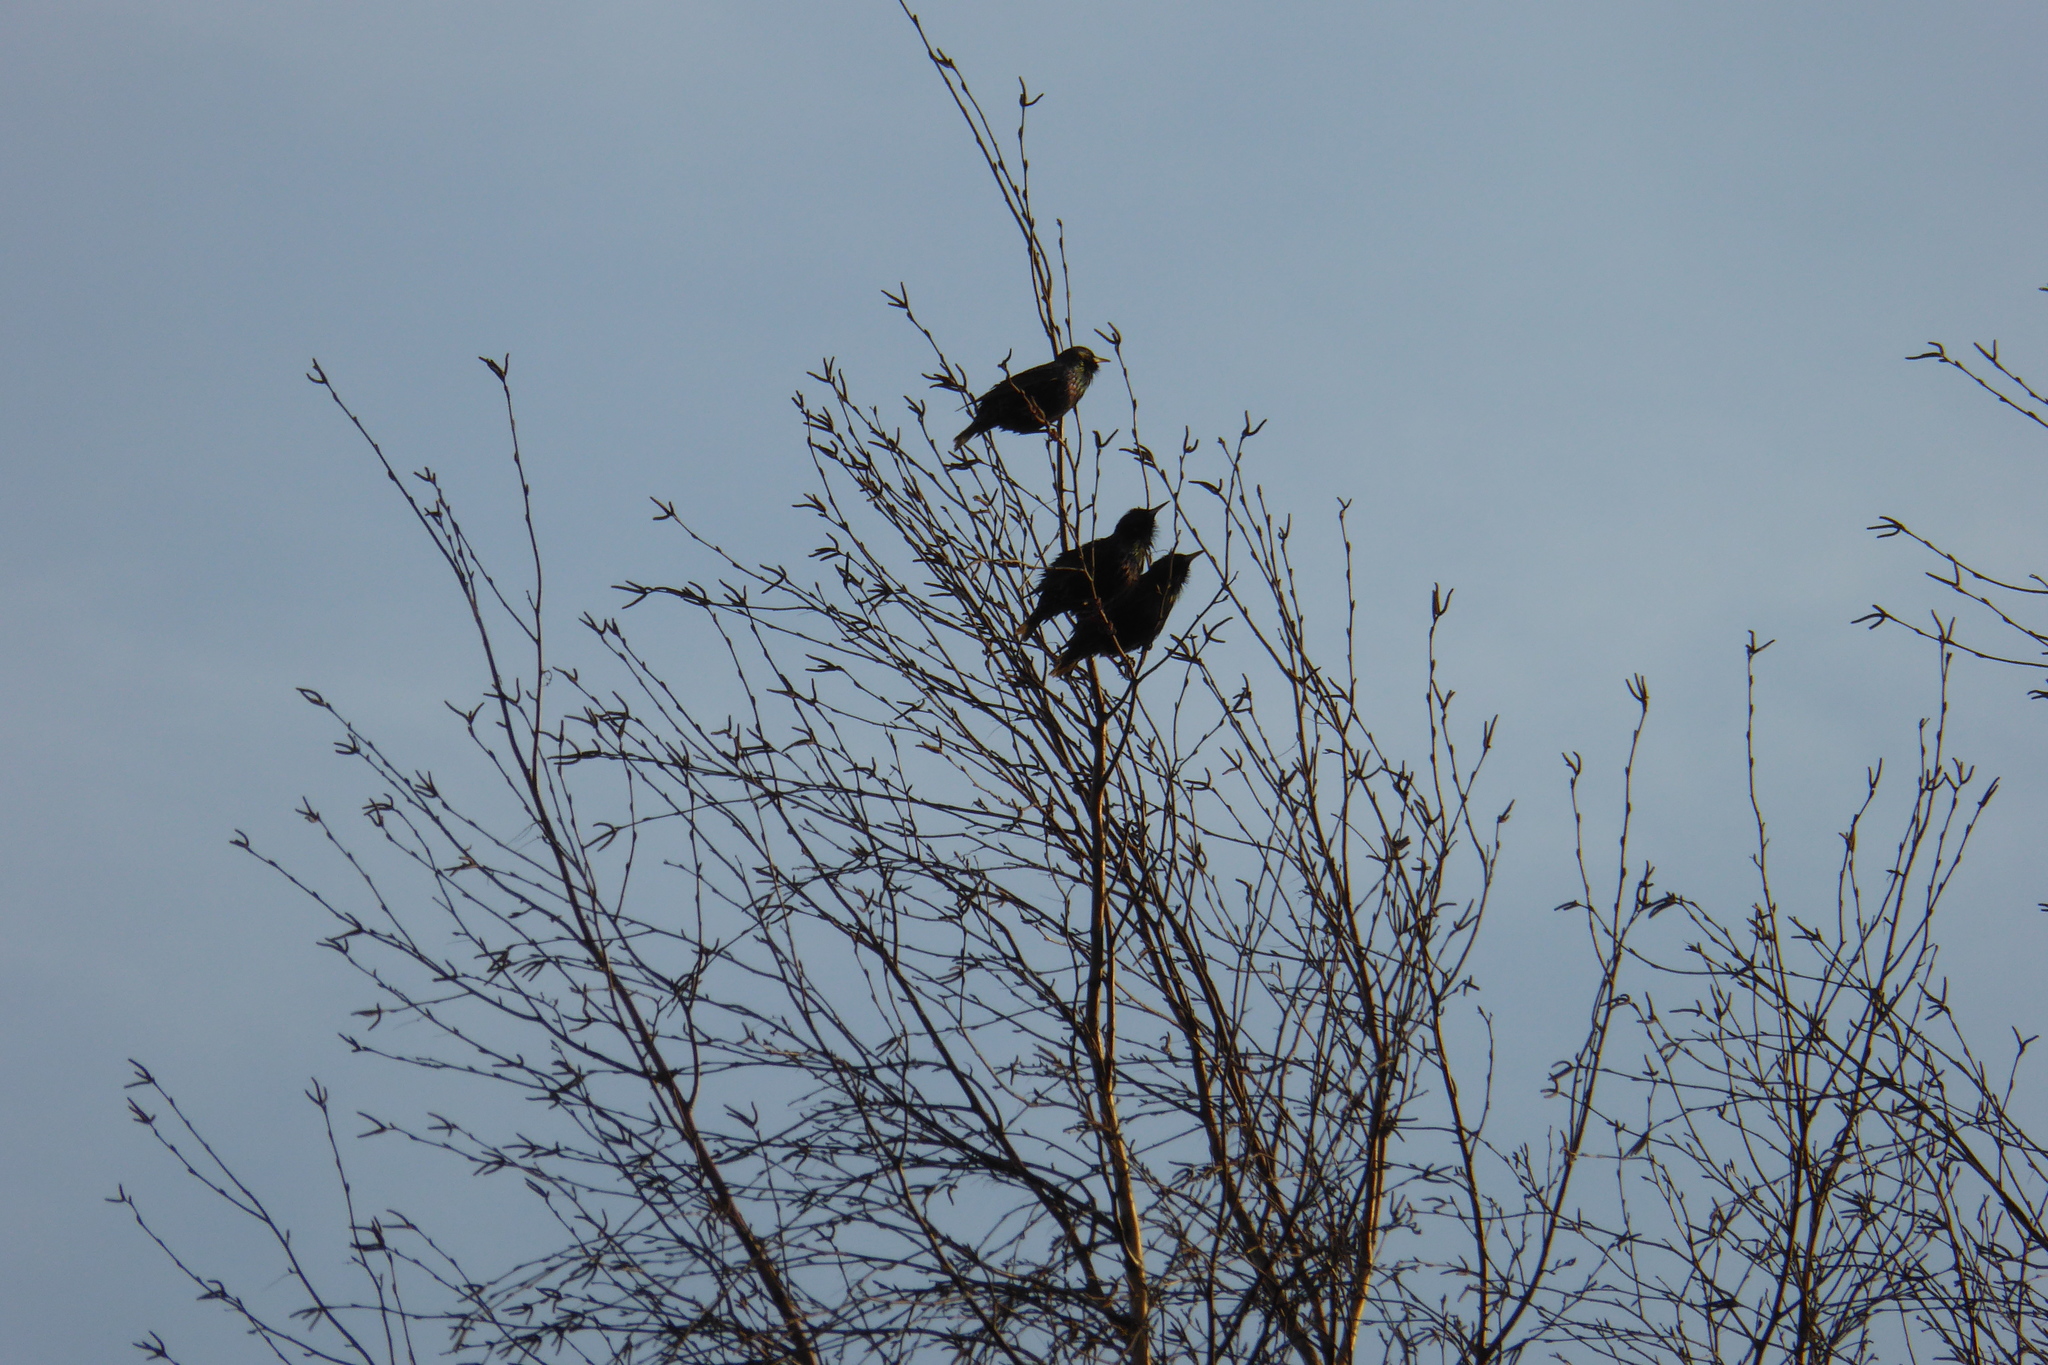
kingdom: Animalia
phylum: Chordata
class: Aves
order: Passeriformes
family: Sturnidae
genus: Sturnus
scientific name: Sturnus vulgaris
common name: Common starling
